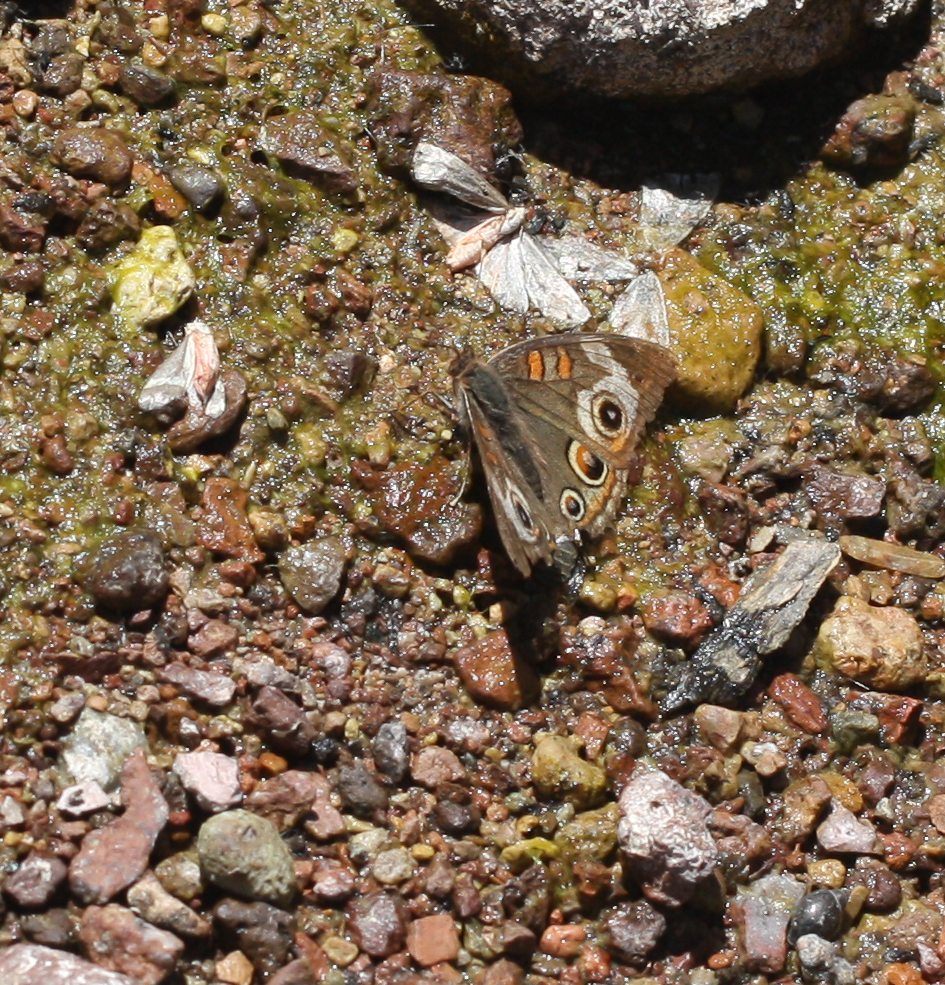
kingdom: Animalia
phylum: Arthropoda
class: Insecta
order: Lepidoptera
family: Nymphalidae
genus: Junonia
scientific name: Junonia grisea
